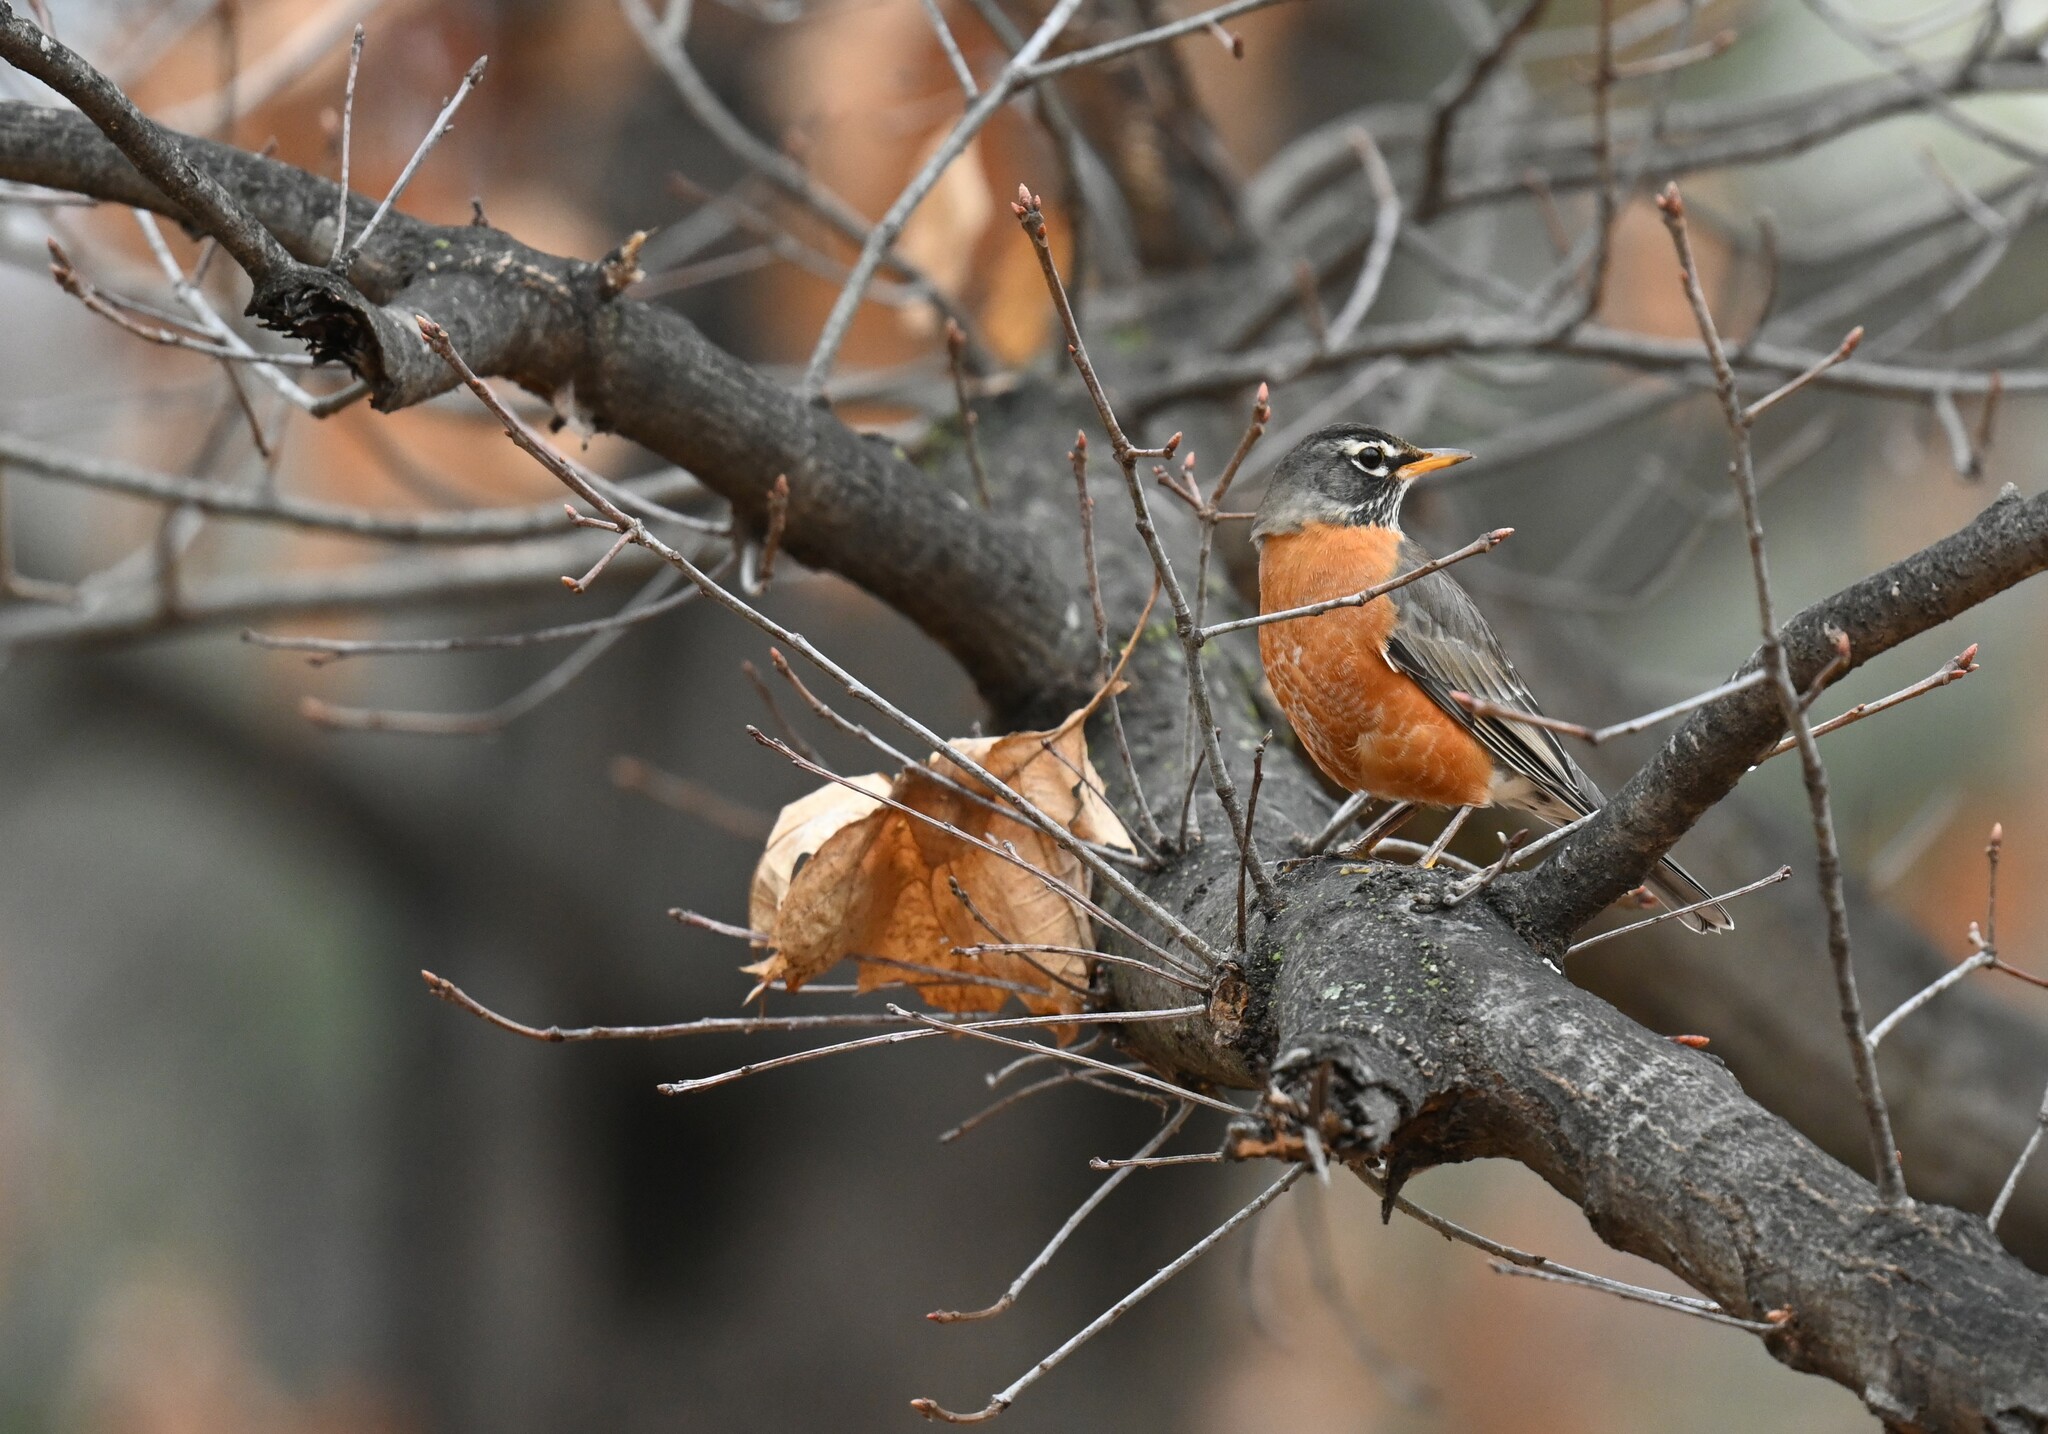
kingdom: Animalia
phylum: Chordata
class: Aves
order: Passeriformes
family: Turdidae
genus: Turdus
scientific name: Turdus migratorius
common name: American robin
